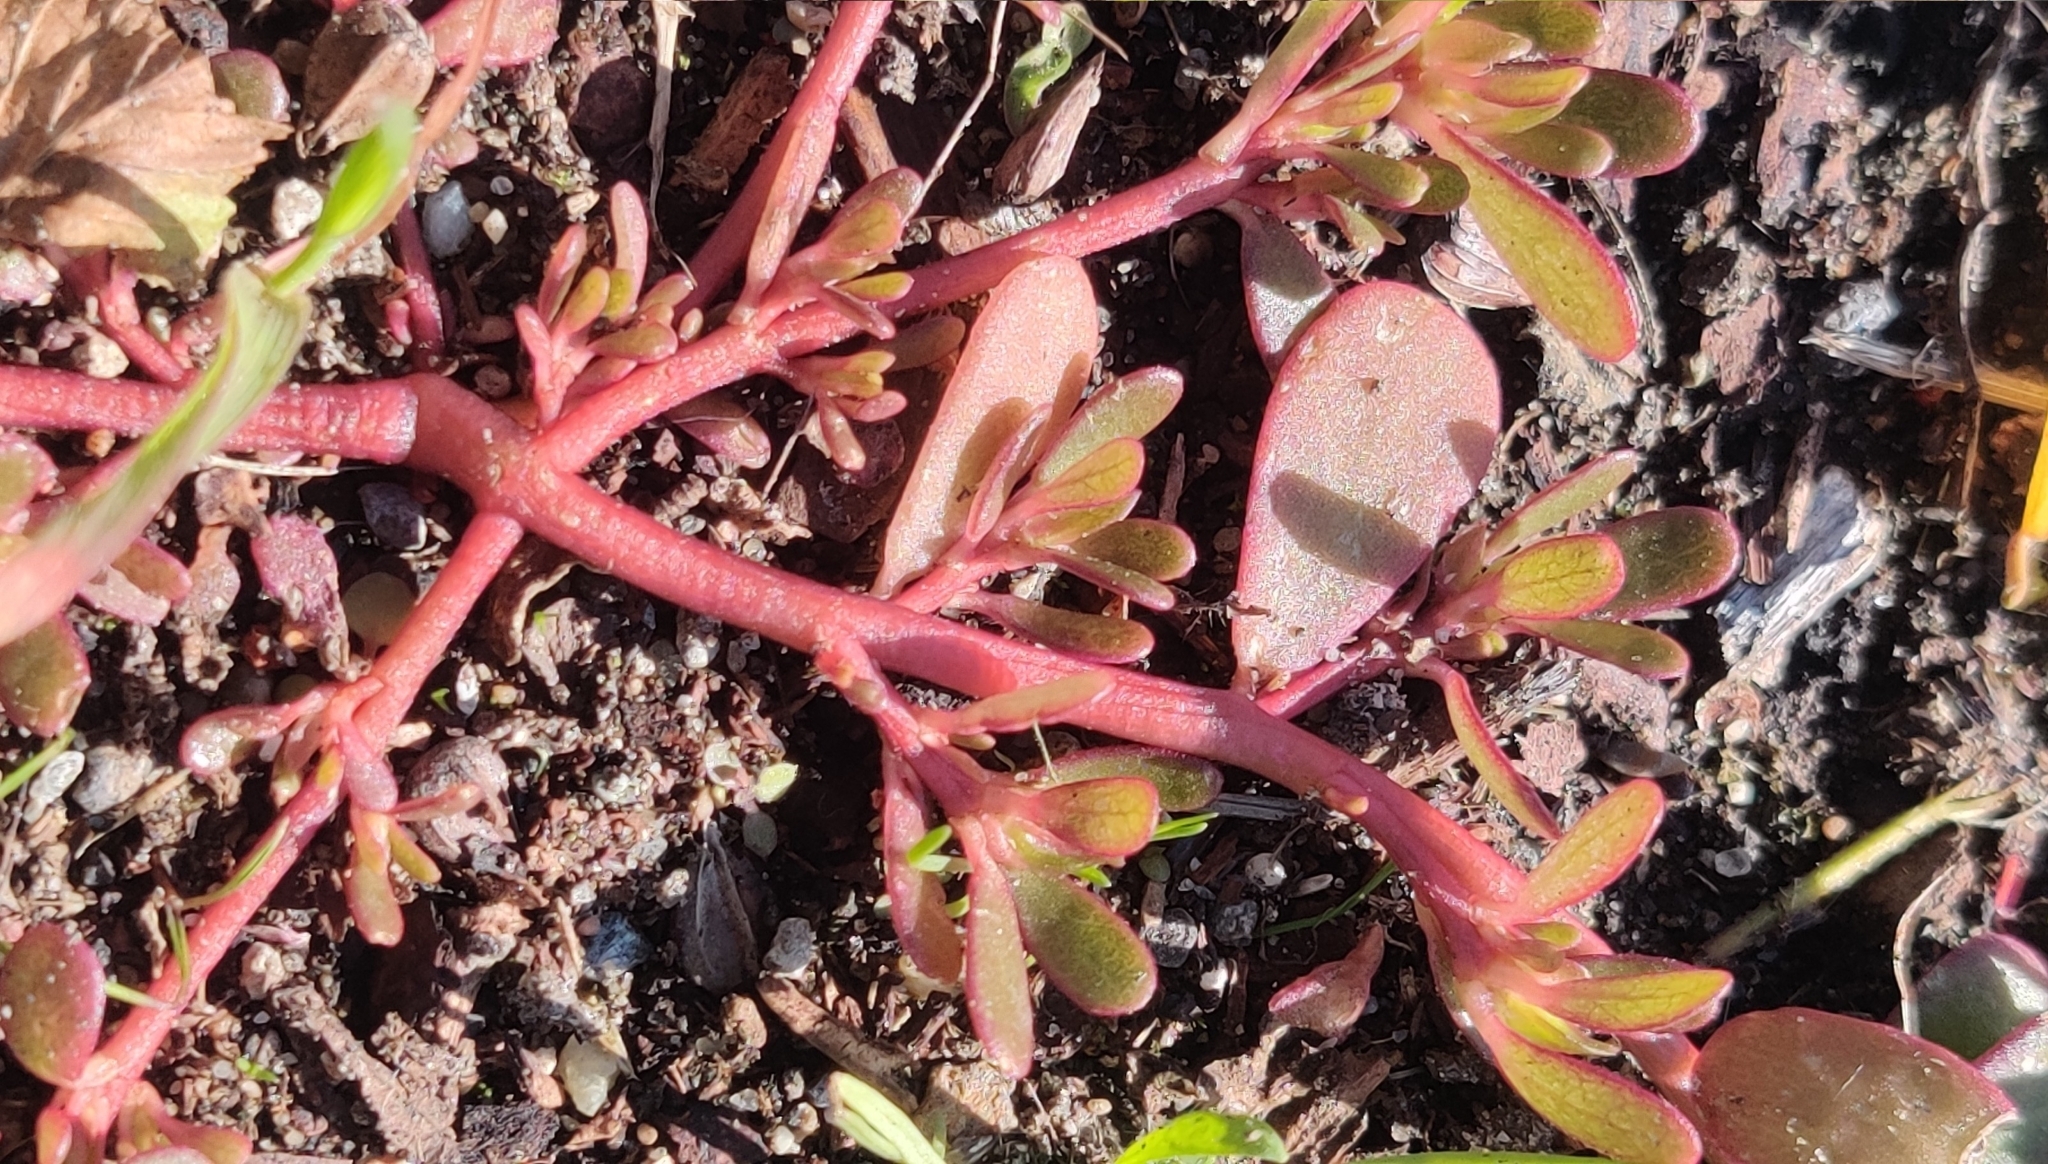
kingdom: Plantae
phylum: Tracheophyta
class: Magnoliopsida
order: Caryophyllales
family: Portulacaceae
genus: Portulaca
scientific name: Portulaca oleracea
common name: Common purslane
